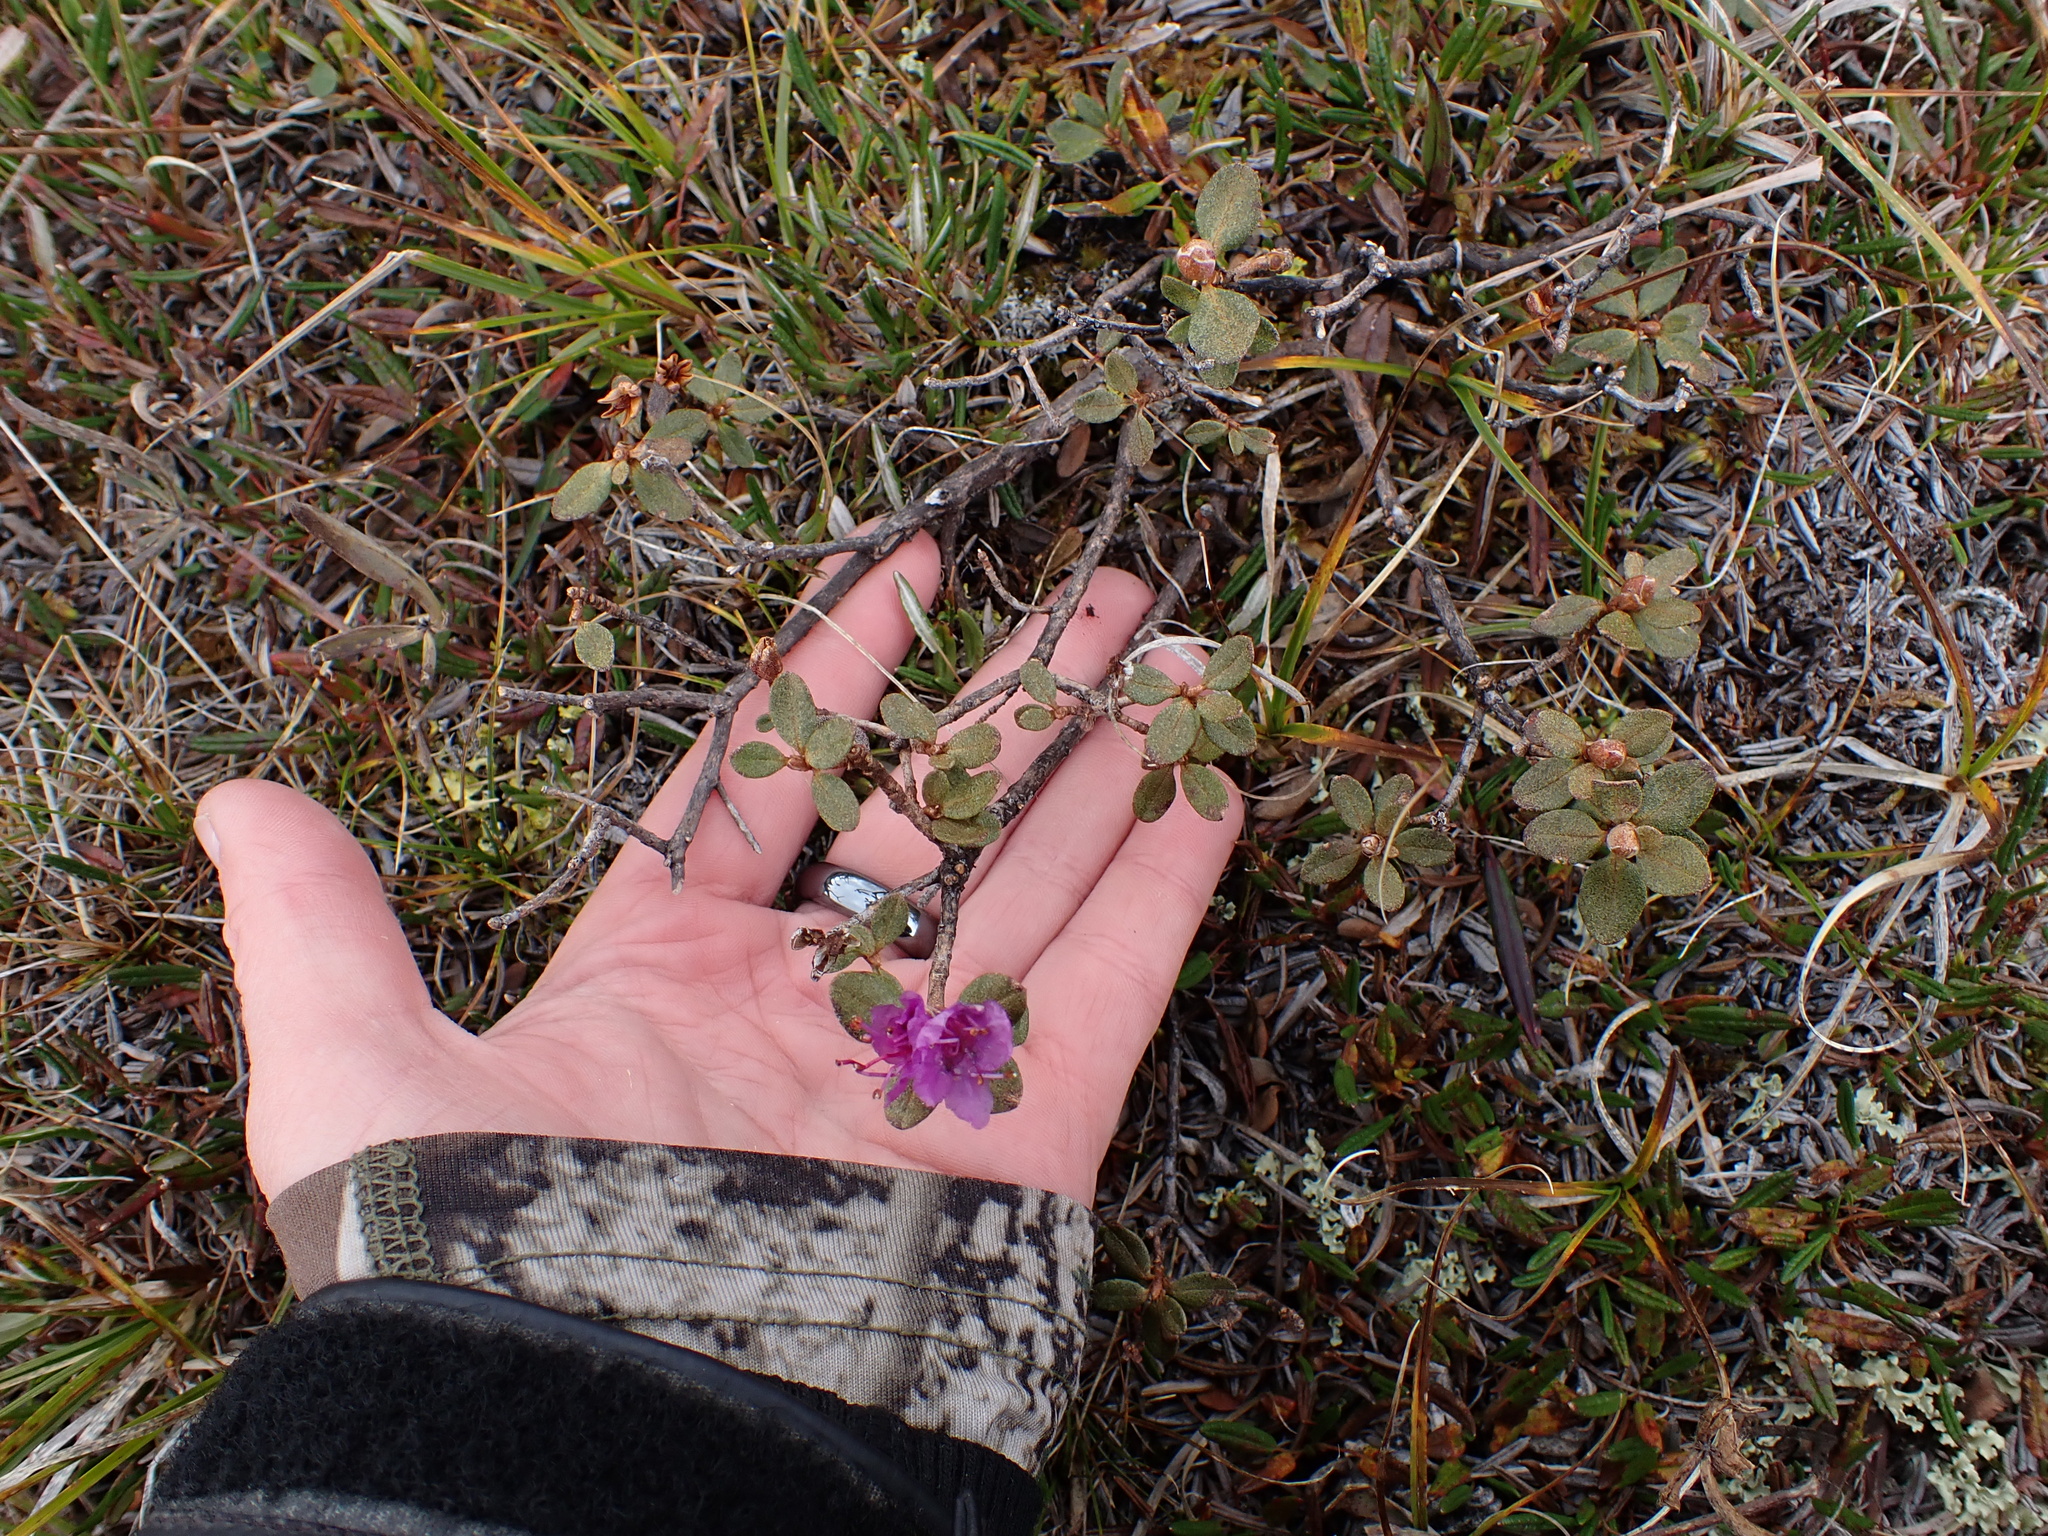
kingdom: Plantae
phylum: Tracheophyta
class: Magnoliopsida
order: Ericales
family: Ericaceae
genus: Rhododendron
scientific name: Rhododendron lapponicum
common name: Lapland rhododendron
